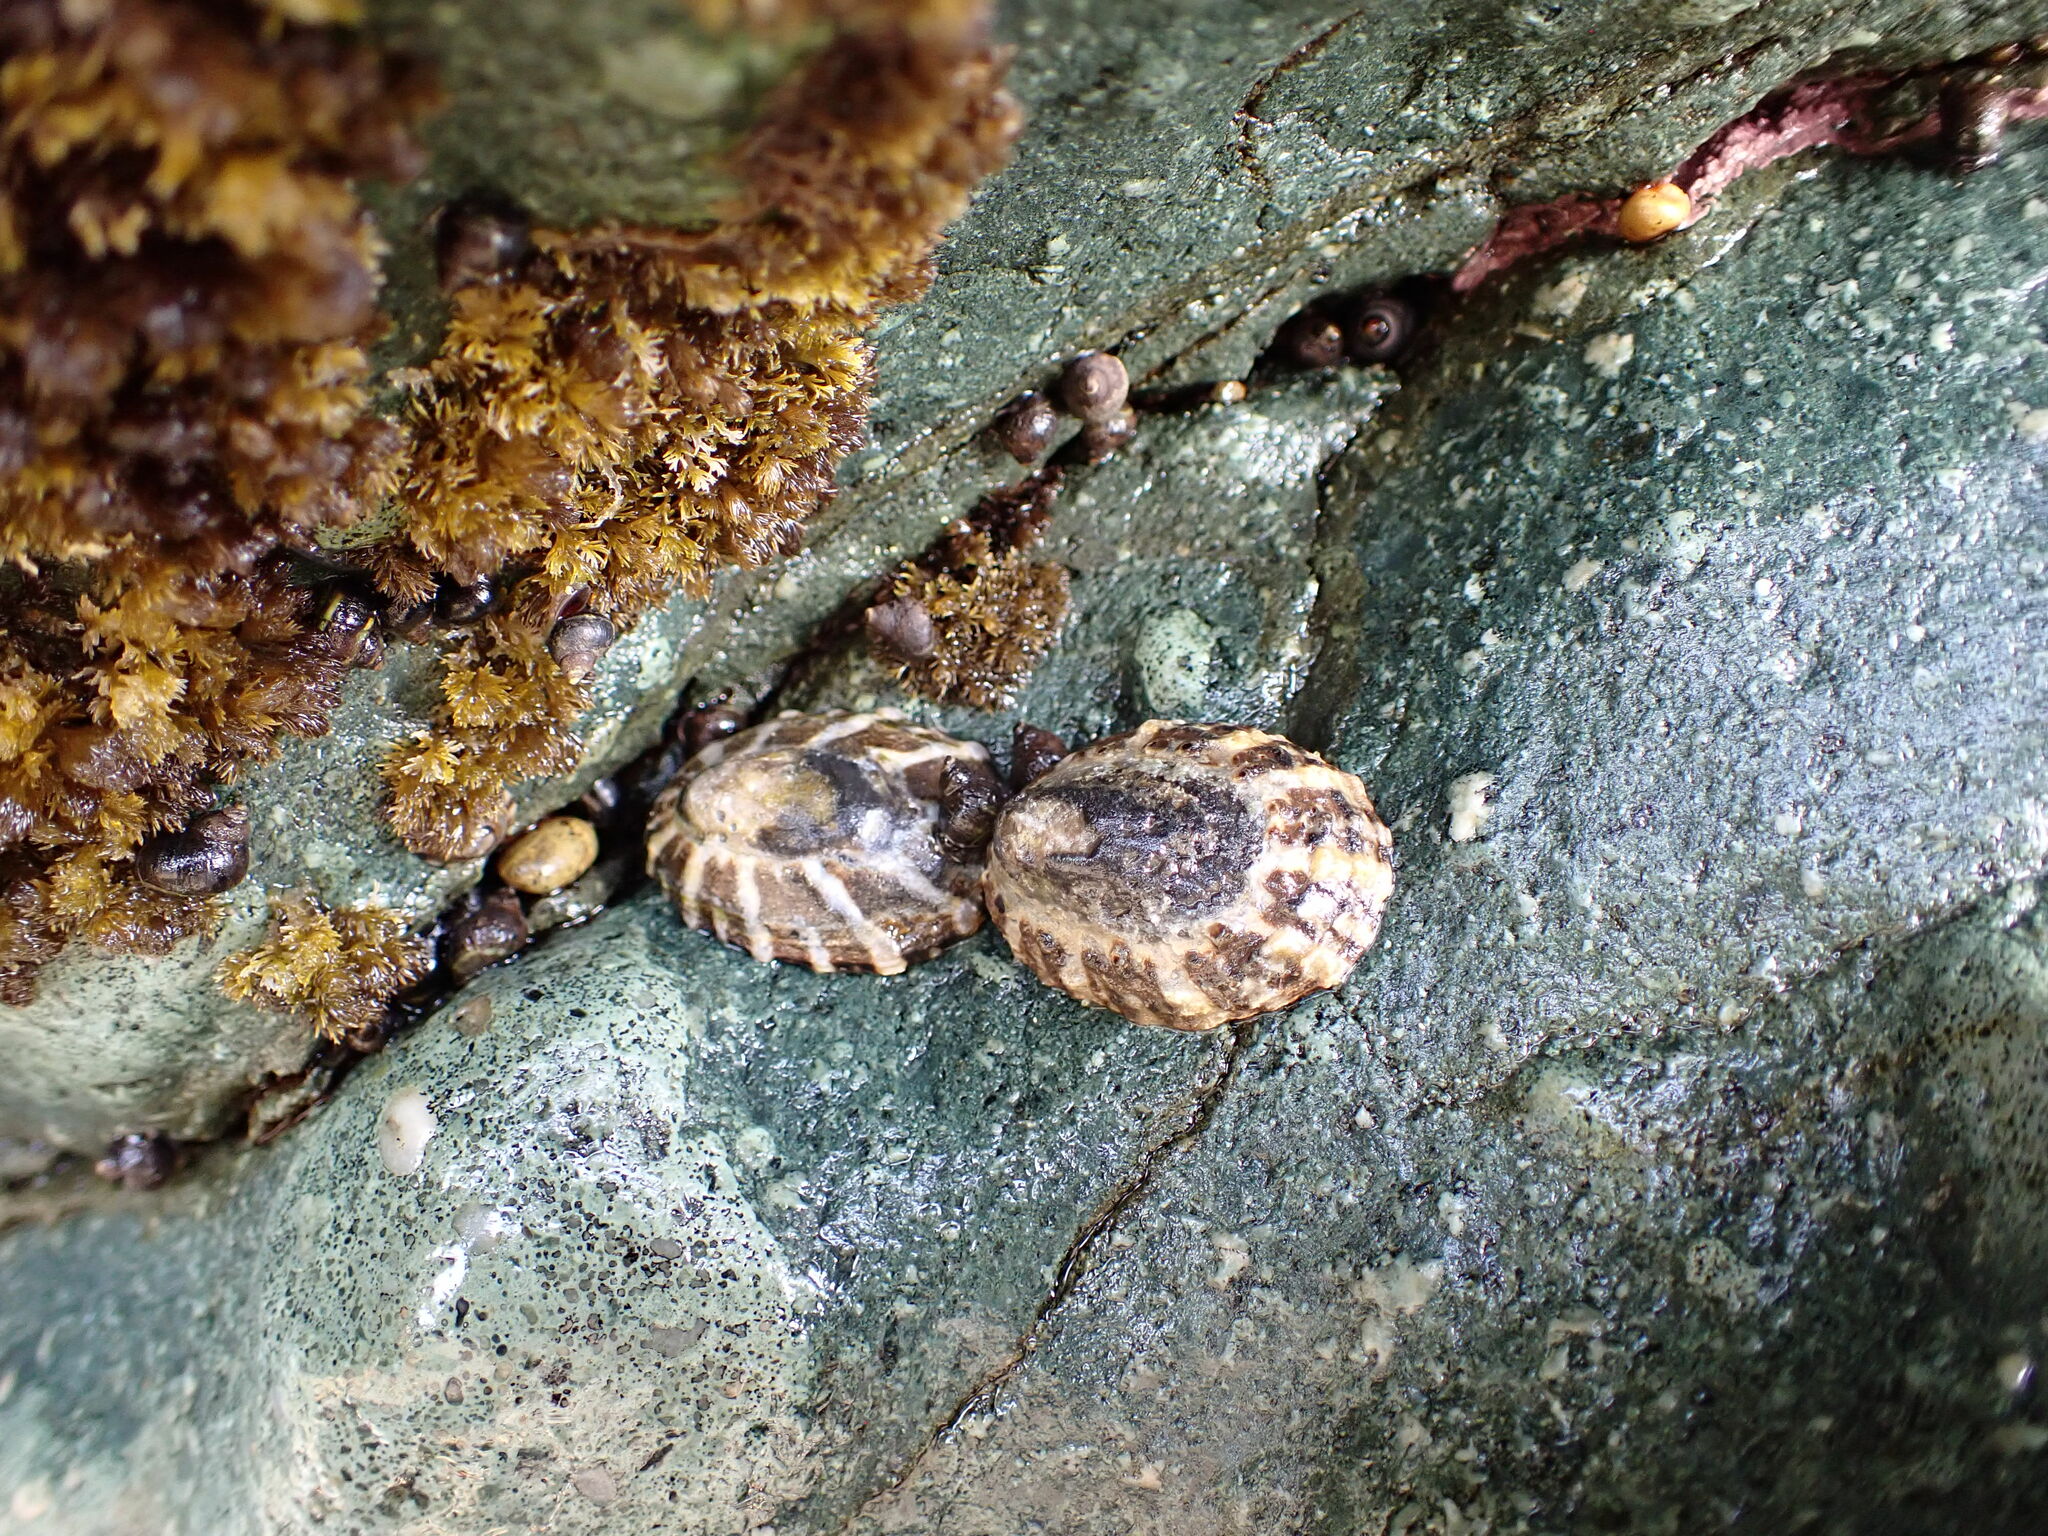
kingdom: Animalia
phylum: Mollusca
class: Gastropoda
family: Nacellidae
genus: Cellana
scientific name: Cellana ornata
